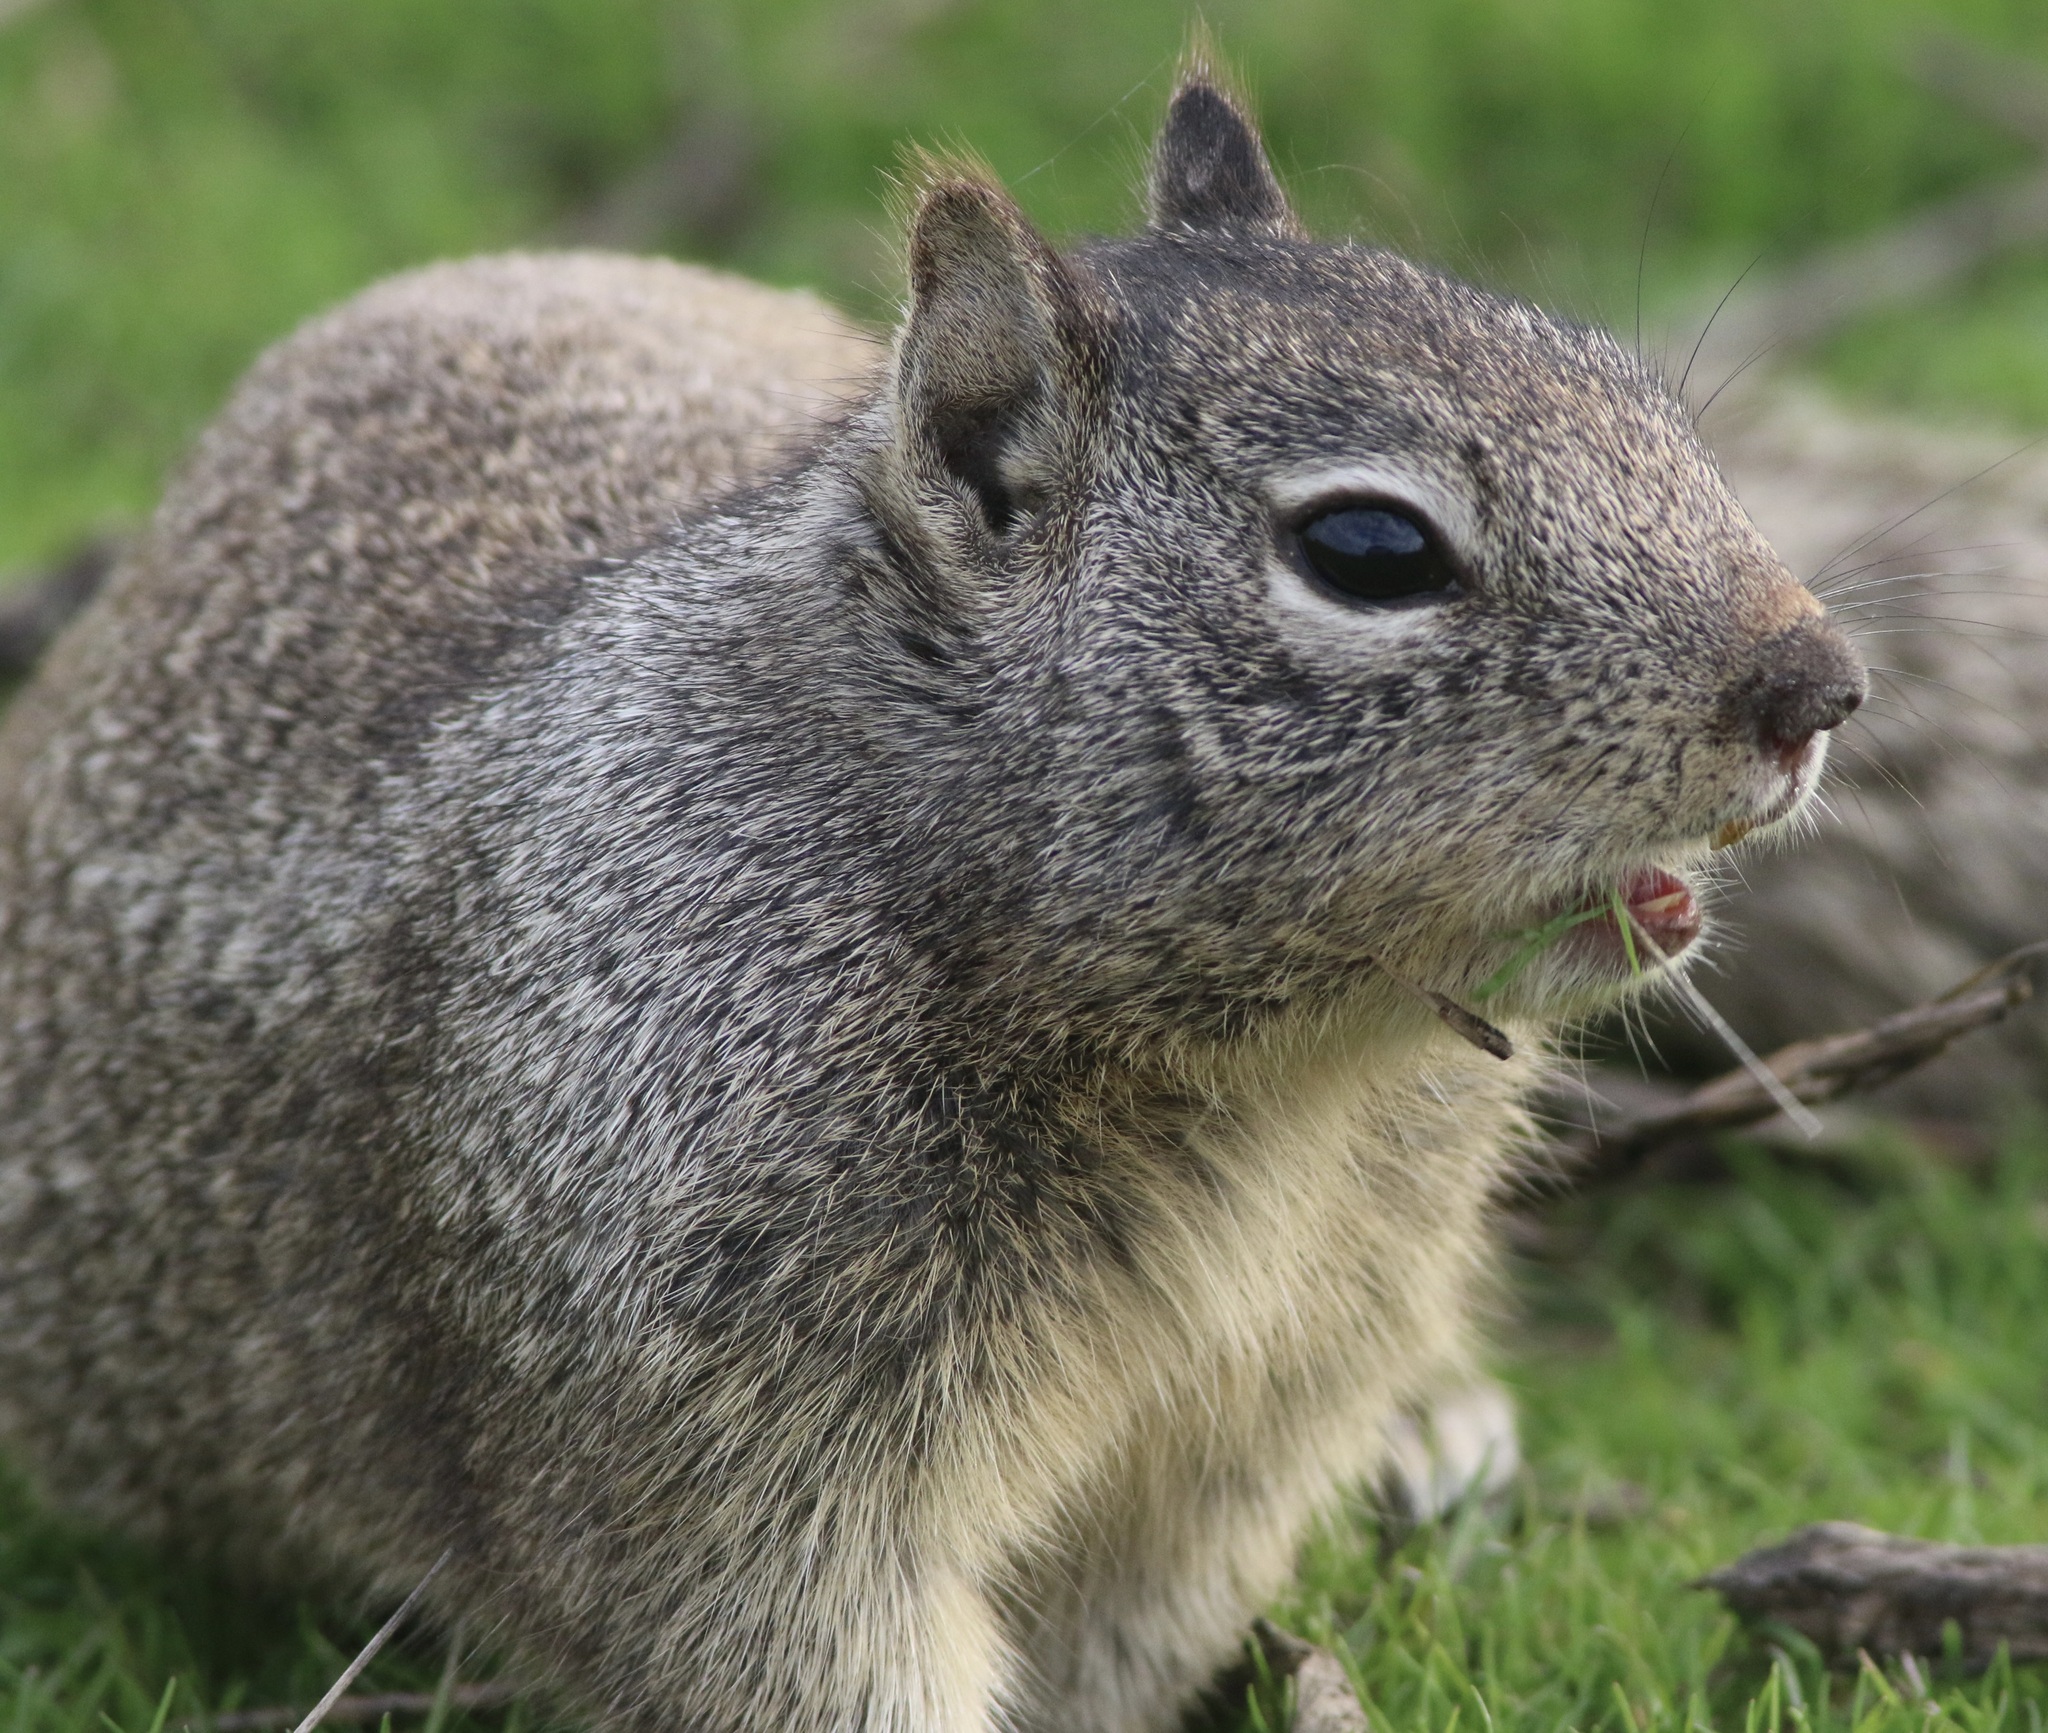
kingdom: Animalia
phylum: Chordata
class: Mammalia
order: Rodentia
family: Sciuridae
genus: Otospermophilus
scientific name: Otospermophilus beecheyi
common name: California ground squirrel
